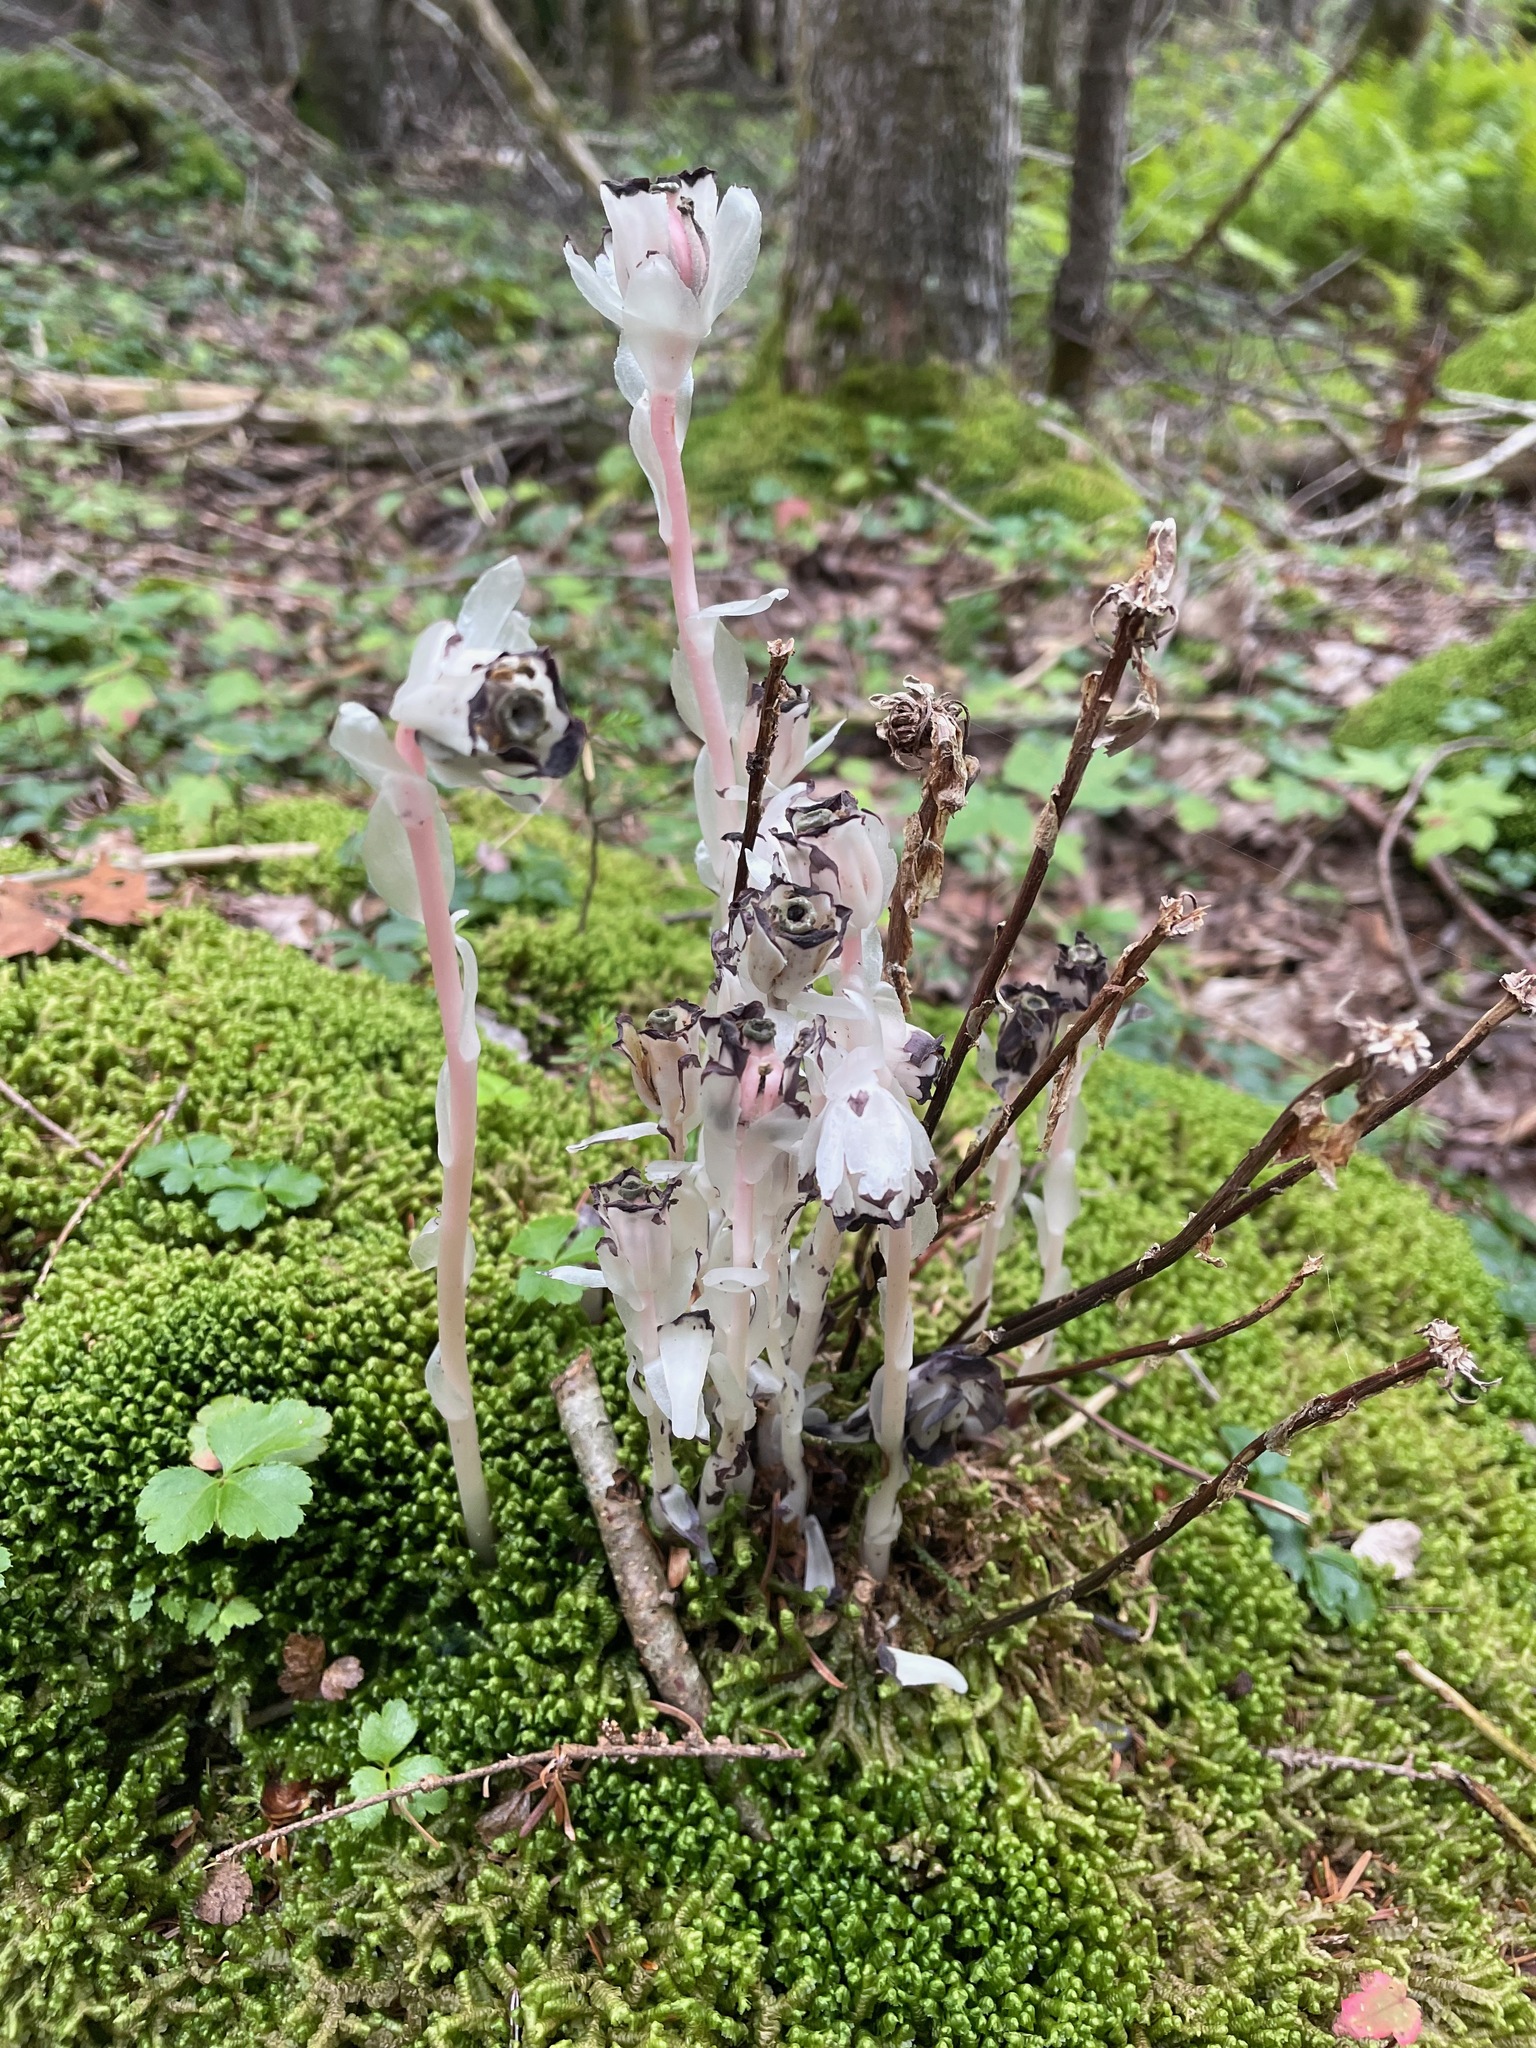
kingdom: Plantae
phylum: Tracheophyta
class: Magnoliopsida
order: Ericales
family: Ericaceae
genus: Monotropa
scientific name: Monotropa uniflora
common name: Convulsion root
